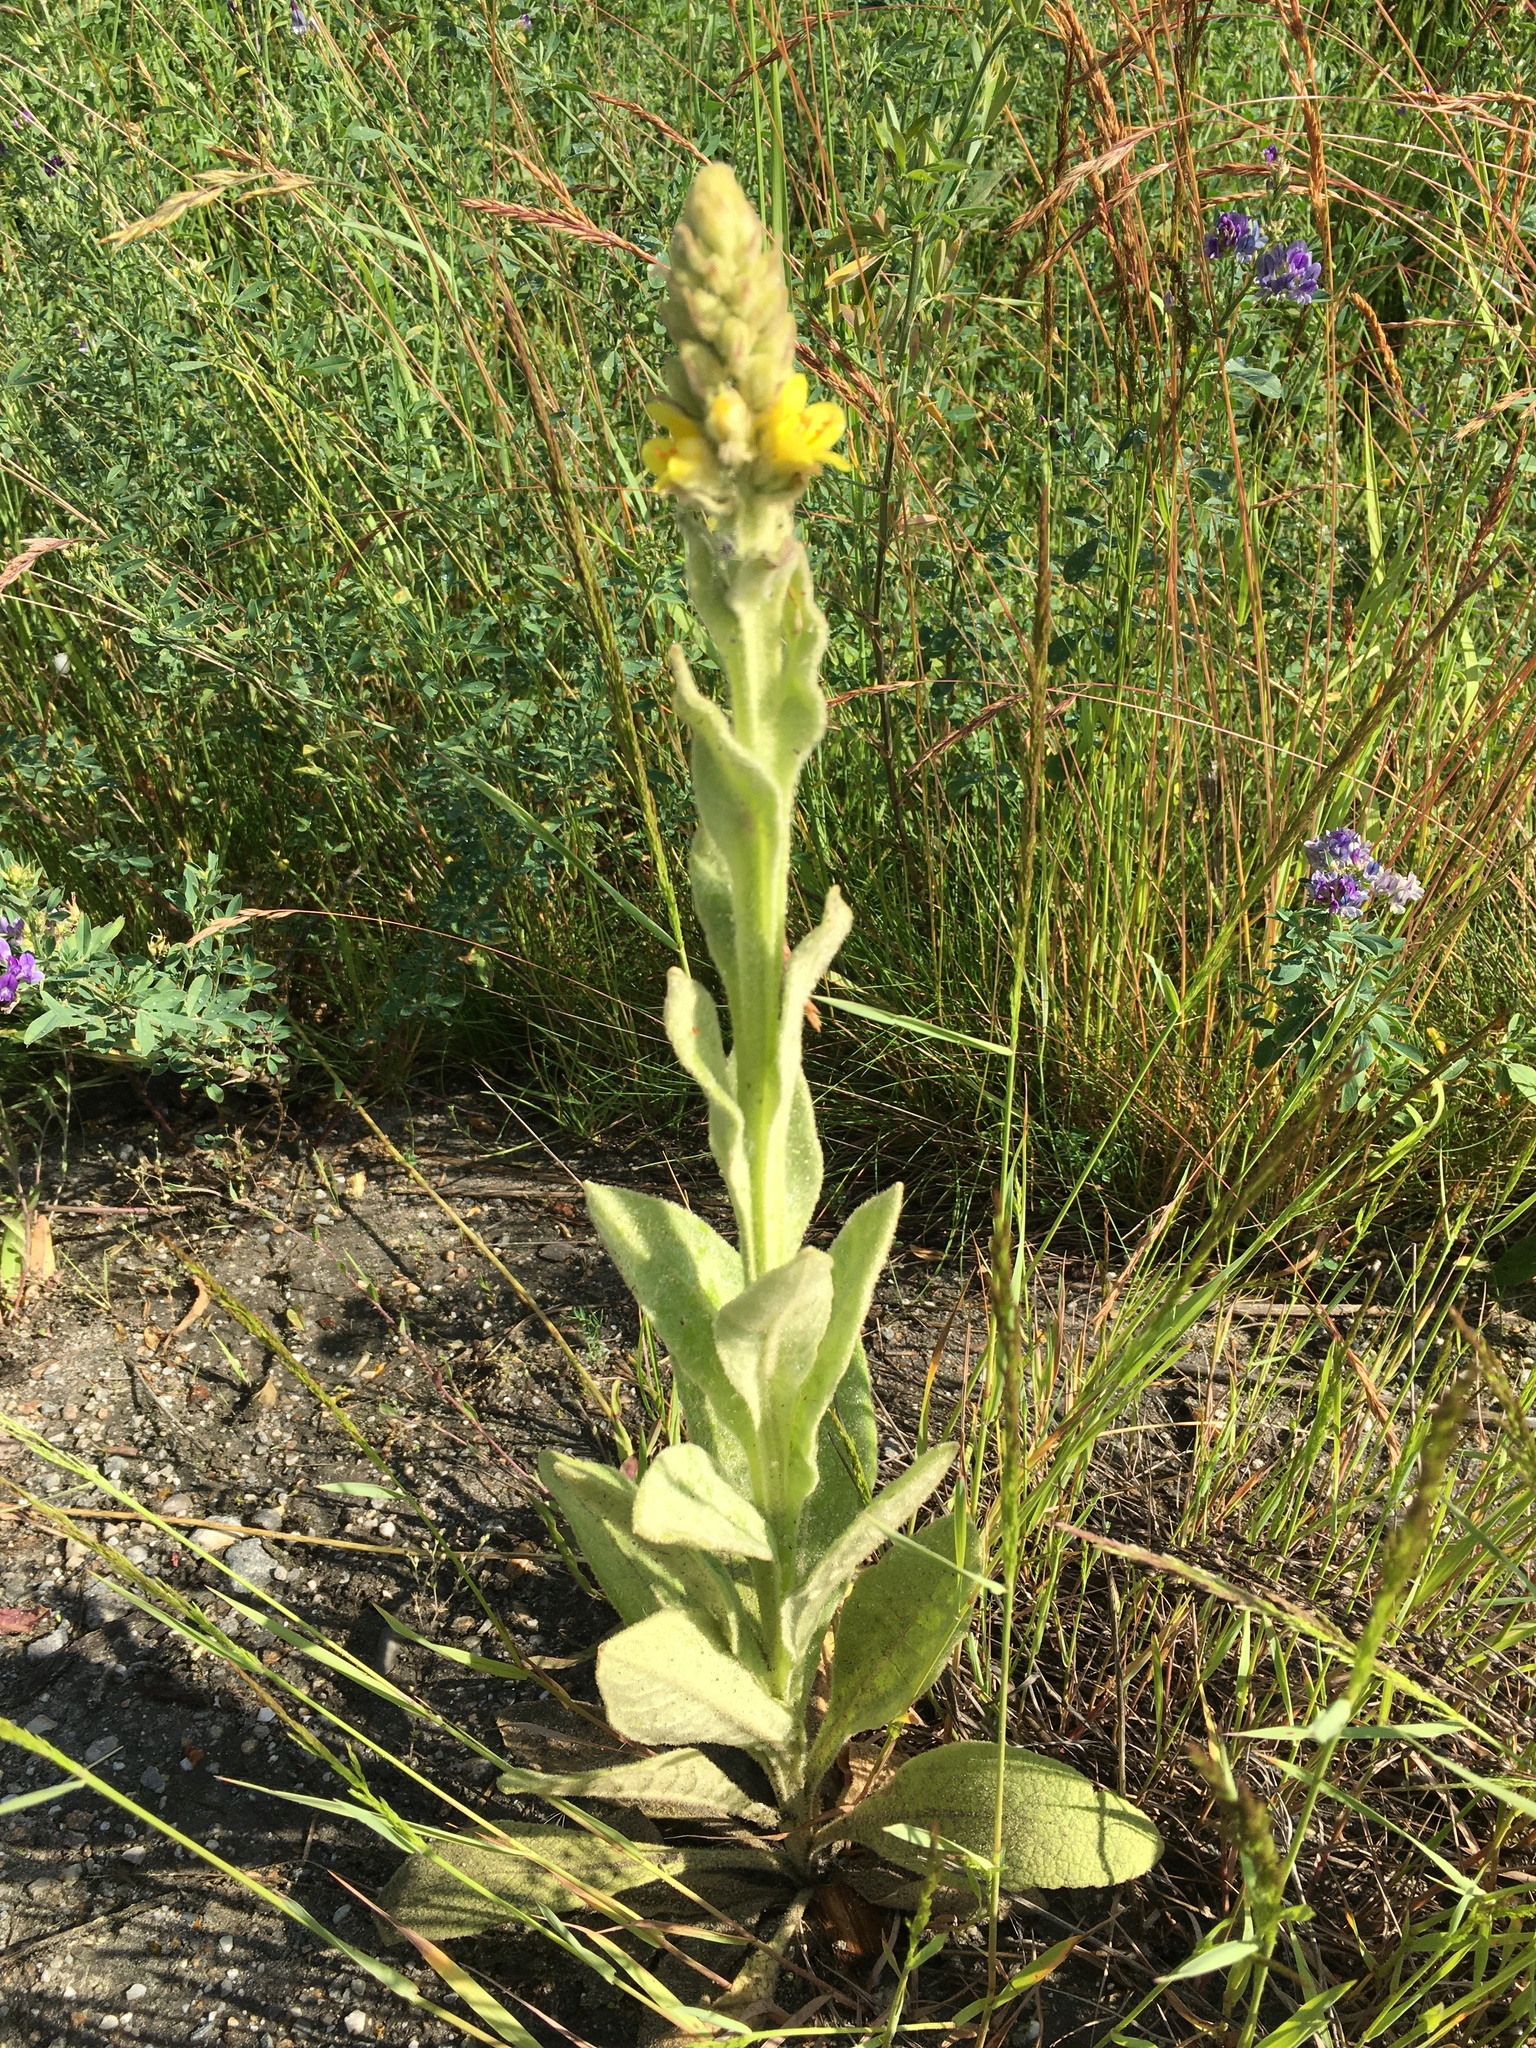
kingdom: Plantae
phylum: Tracheophyta
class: Magnoliopsida
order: Lamiales
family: Scrophulariaceae
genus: Verbascum
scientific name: Verbascum thapsus
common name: Common mullein
